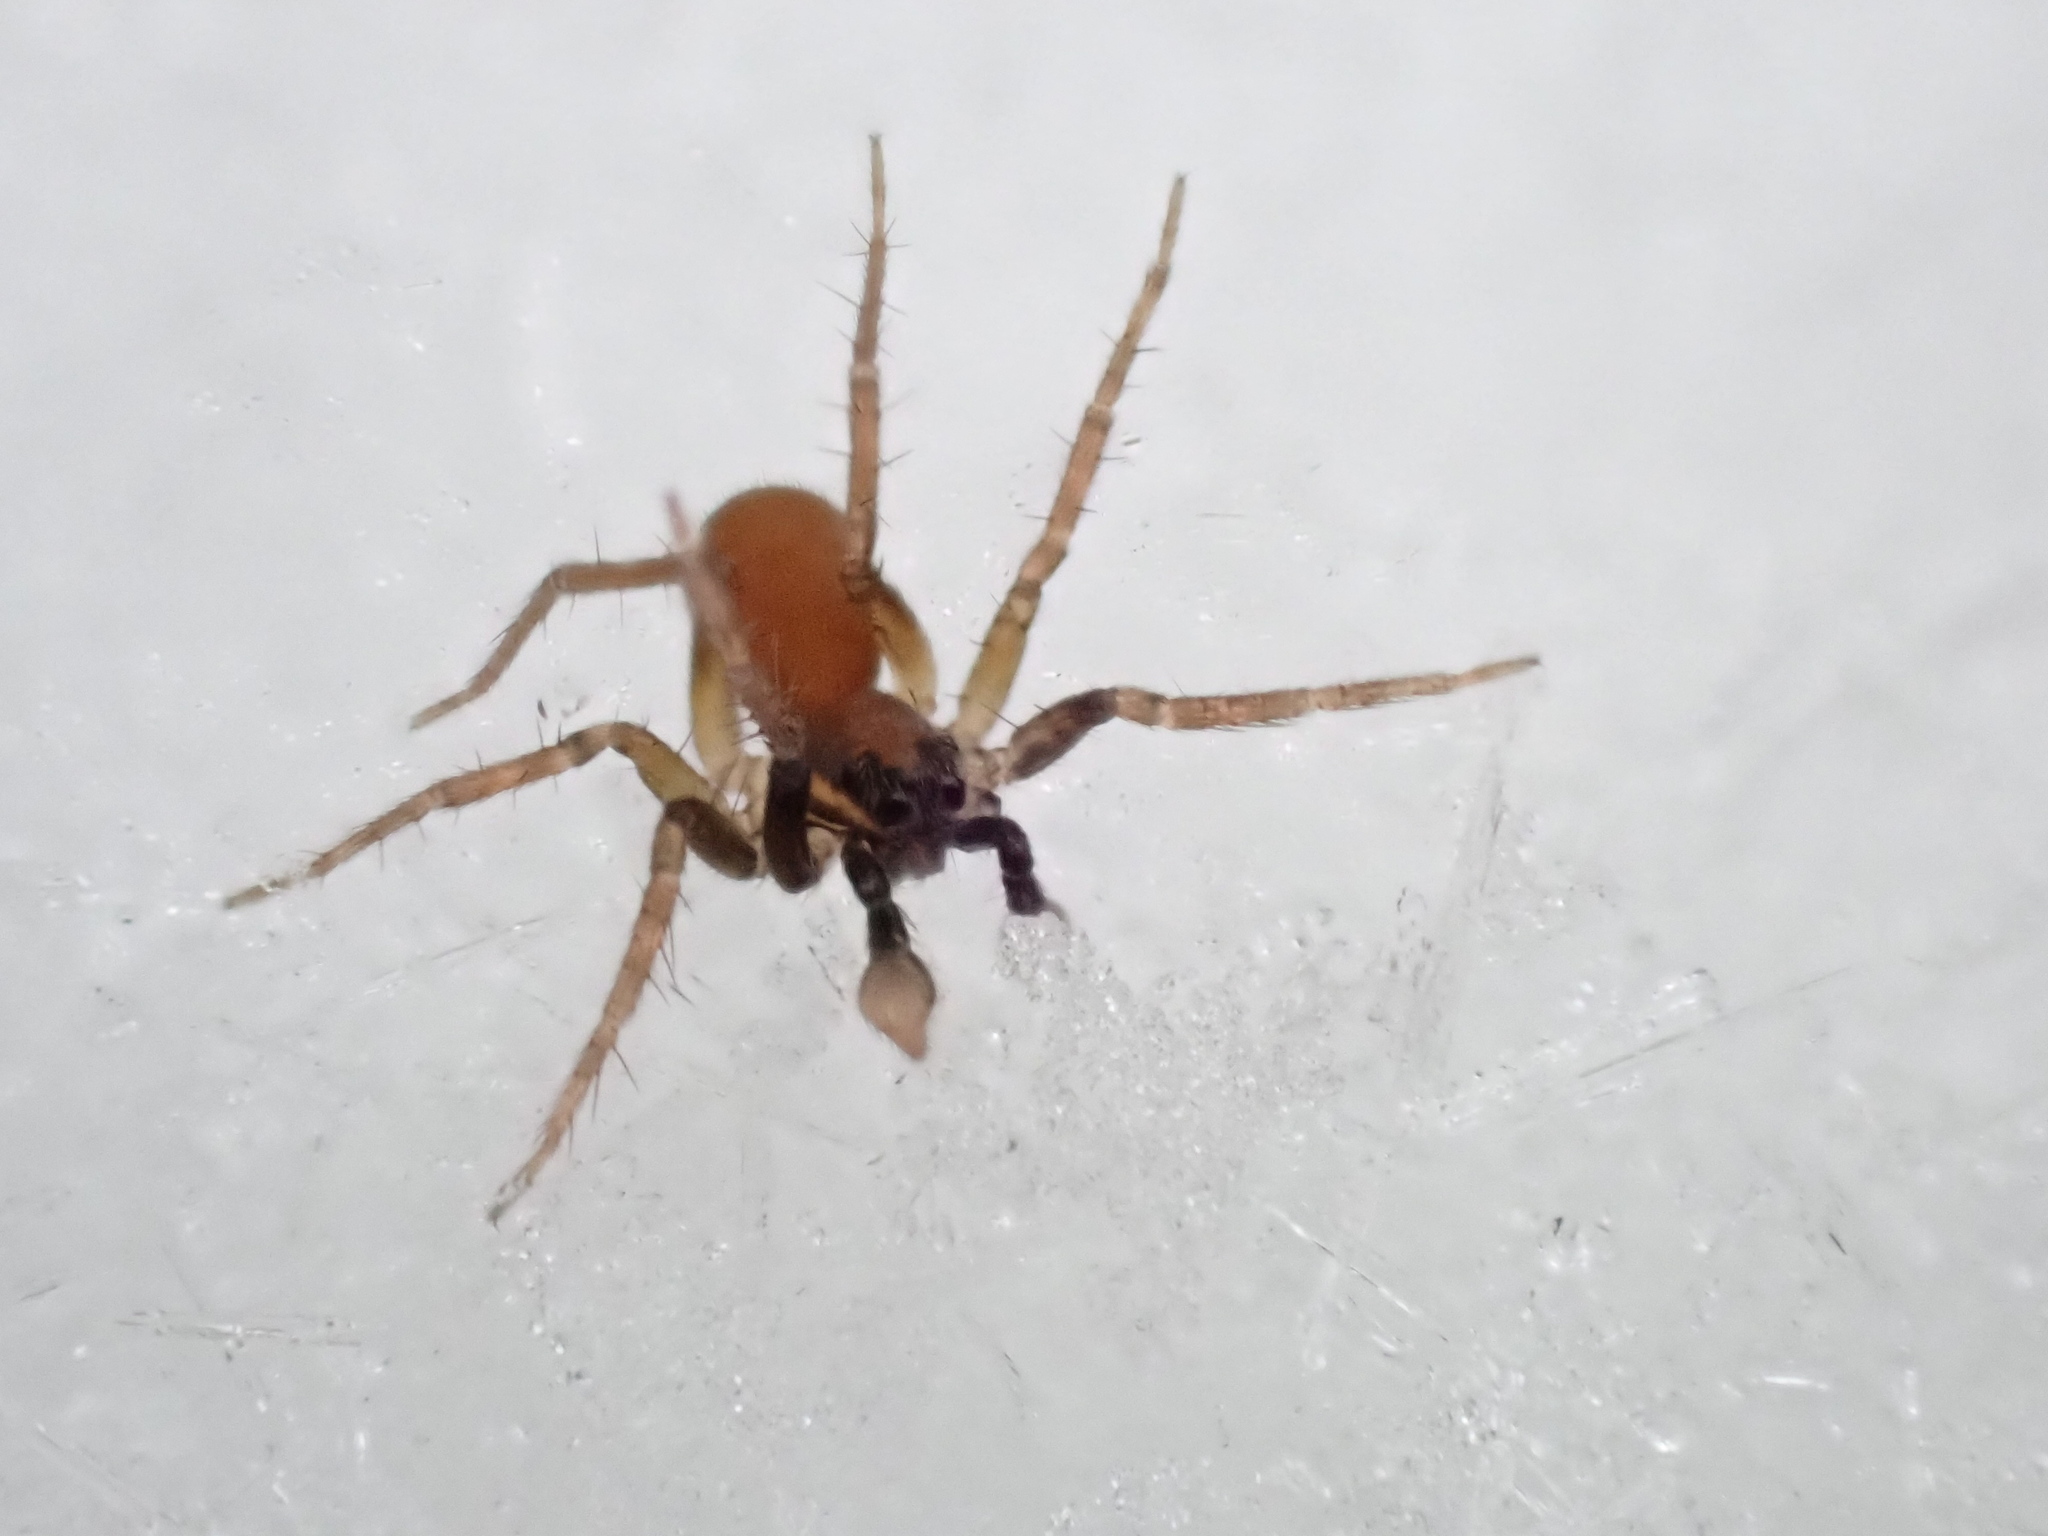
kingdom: Animalia
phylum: Arthropoda
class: Arachnida
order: Araneae
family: Lycosidae
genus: Trabeops
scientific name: Trabeops aurantiacus
